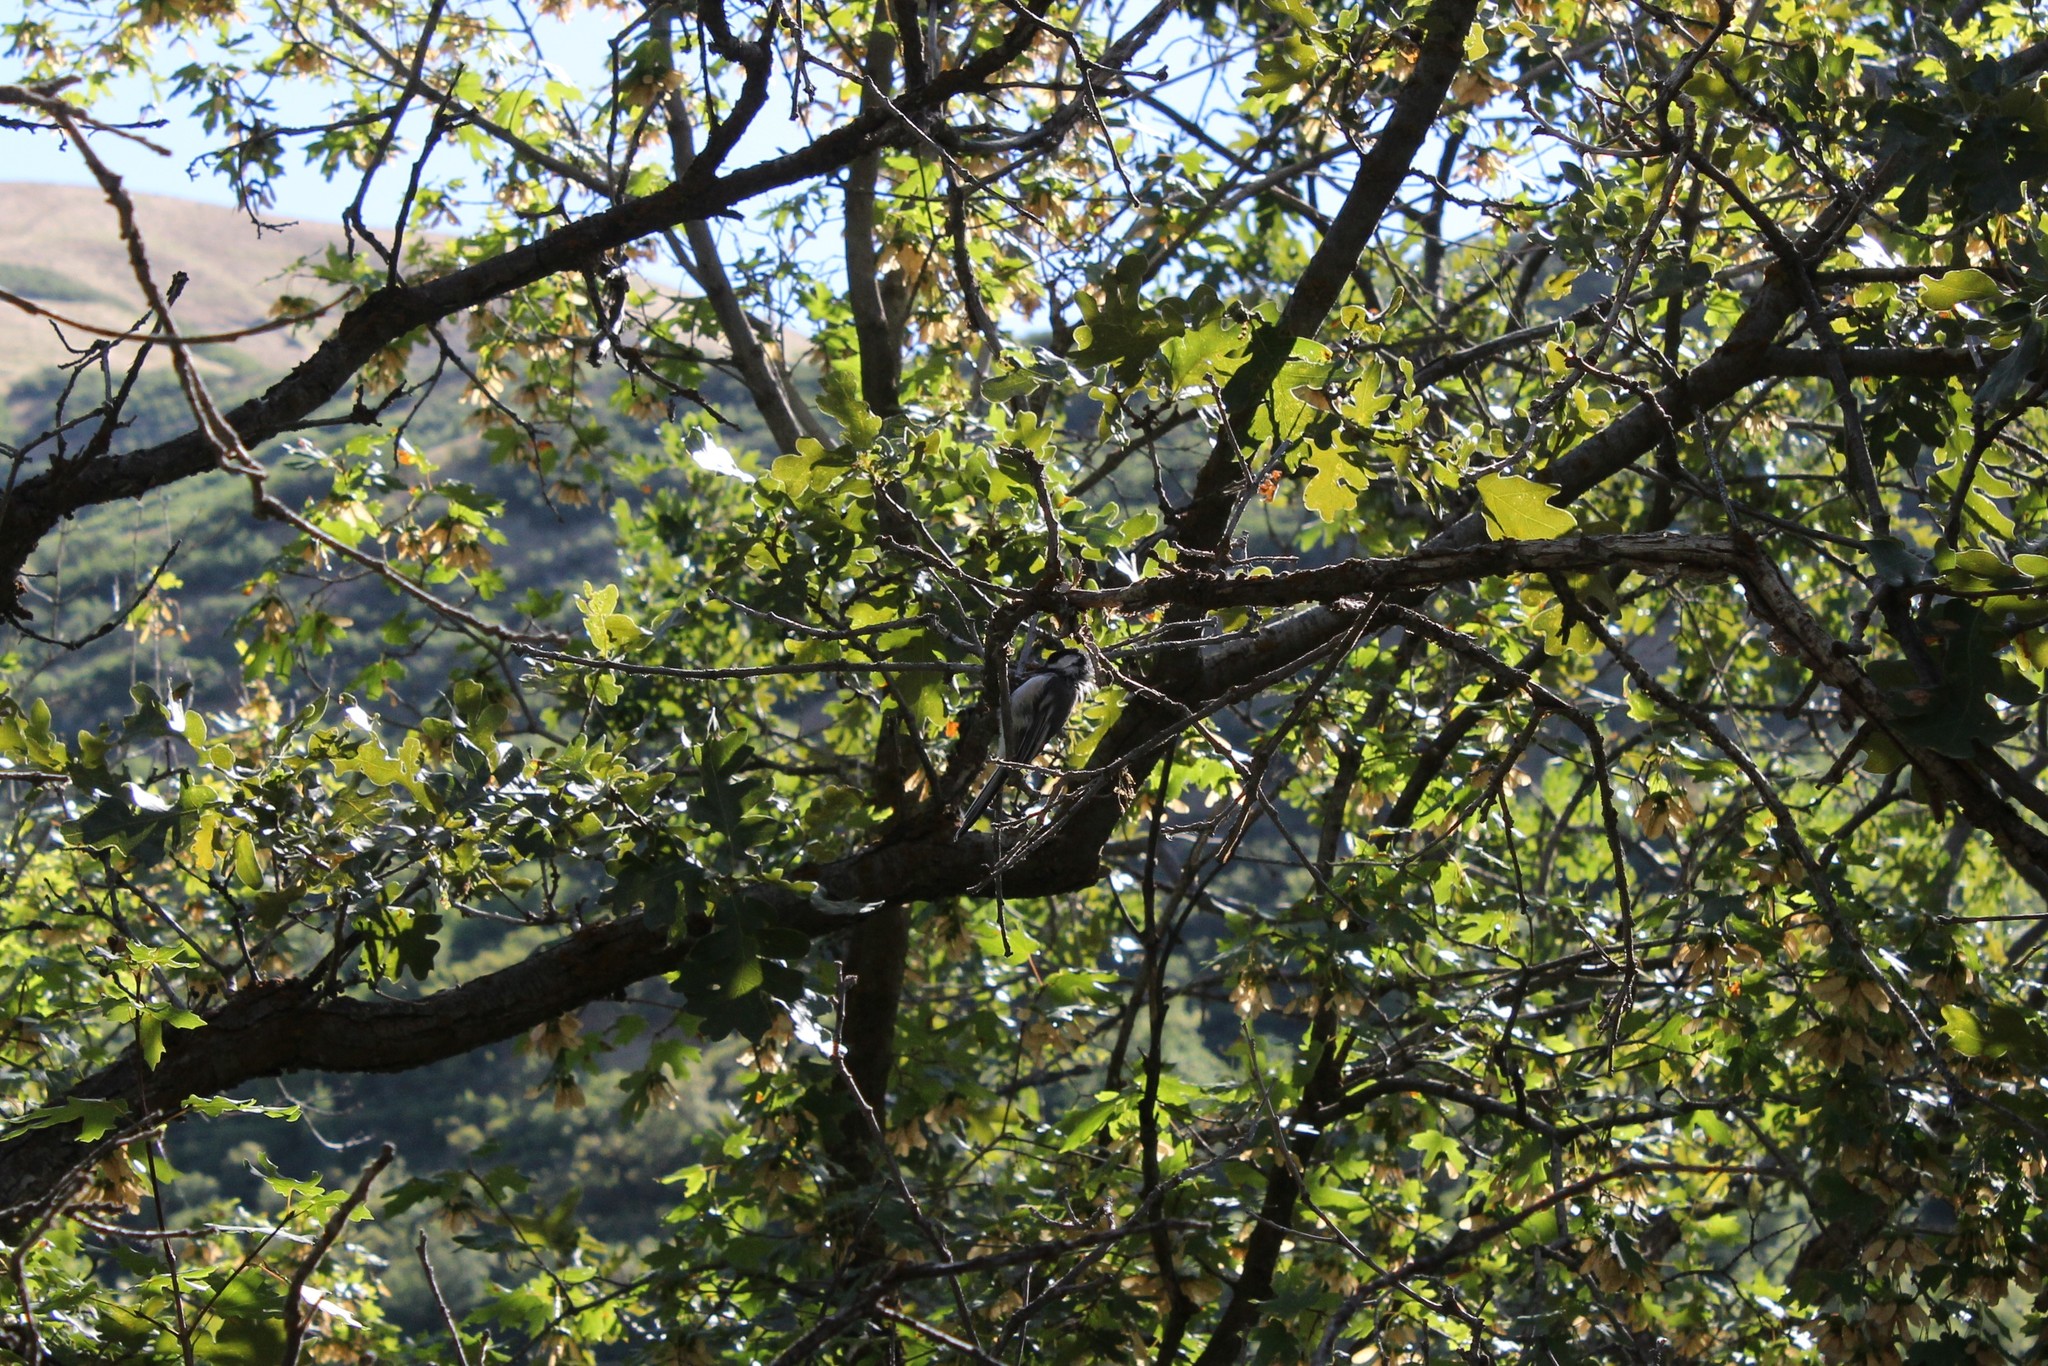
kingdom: Animalia
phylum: Chordata
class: Aves
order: Passeriformes
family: Paridae
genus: Poecile
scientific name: Poecile atricapillus
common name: Black-capped chickadee
